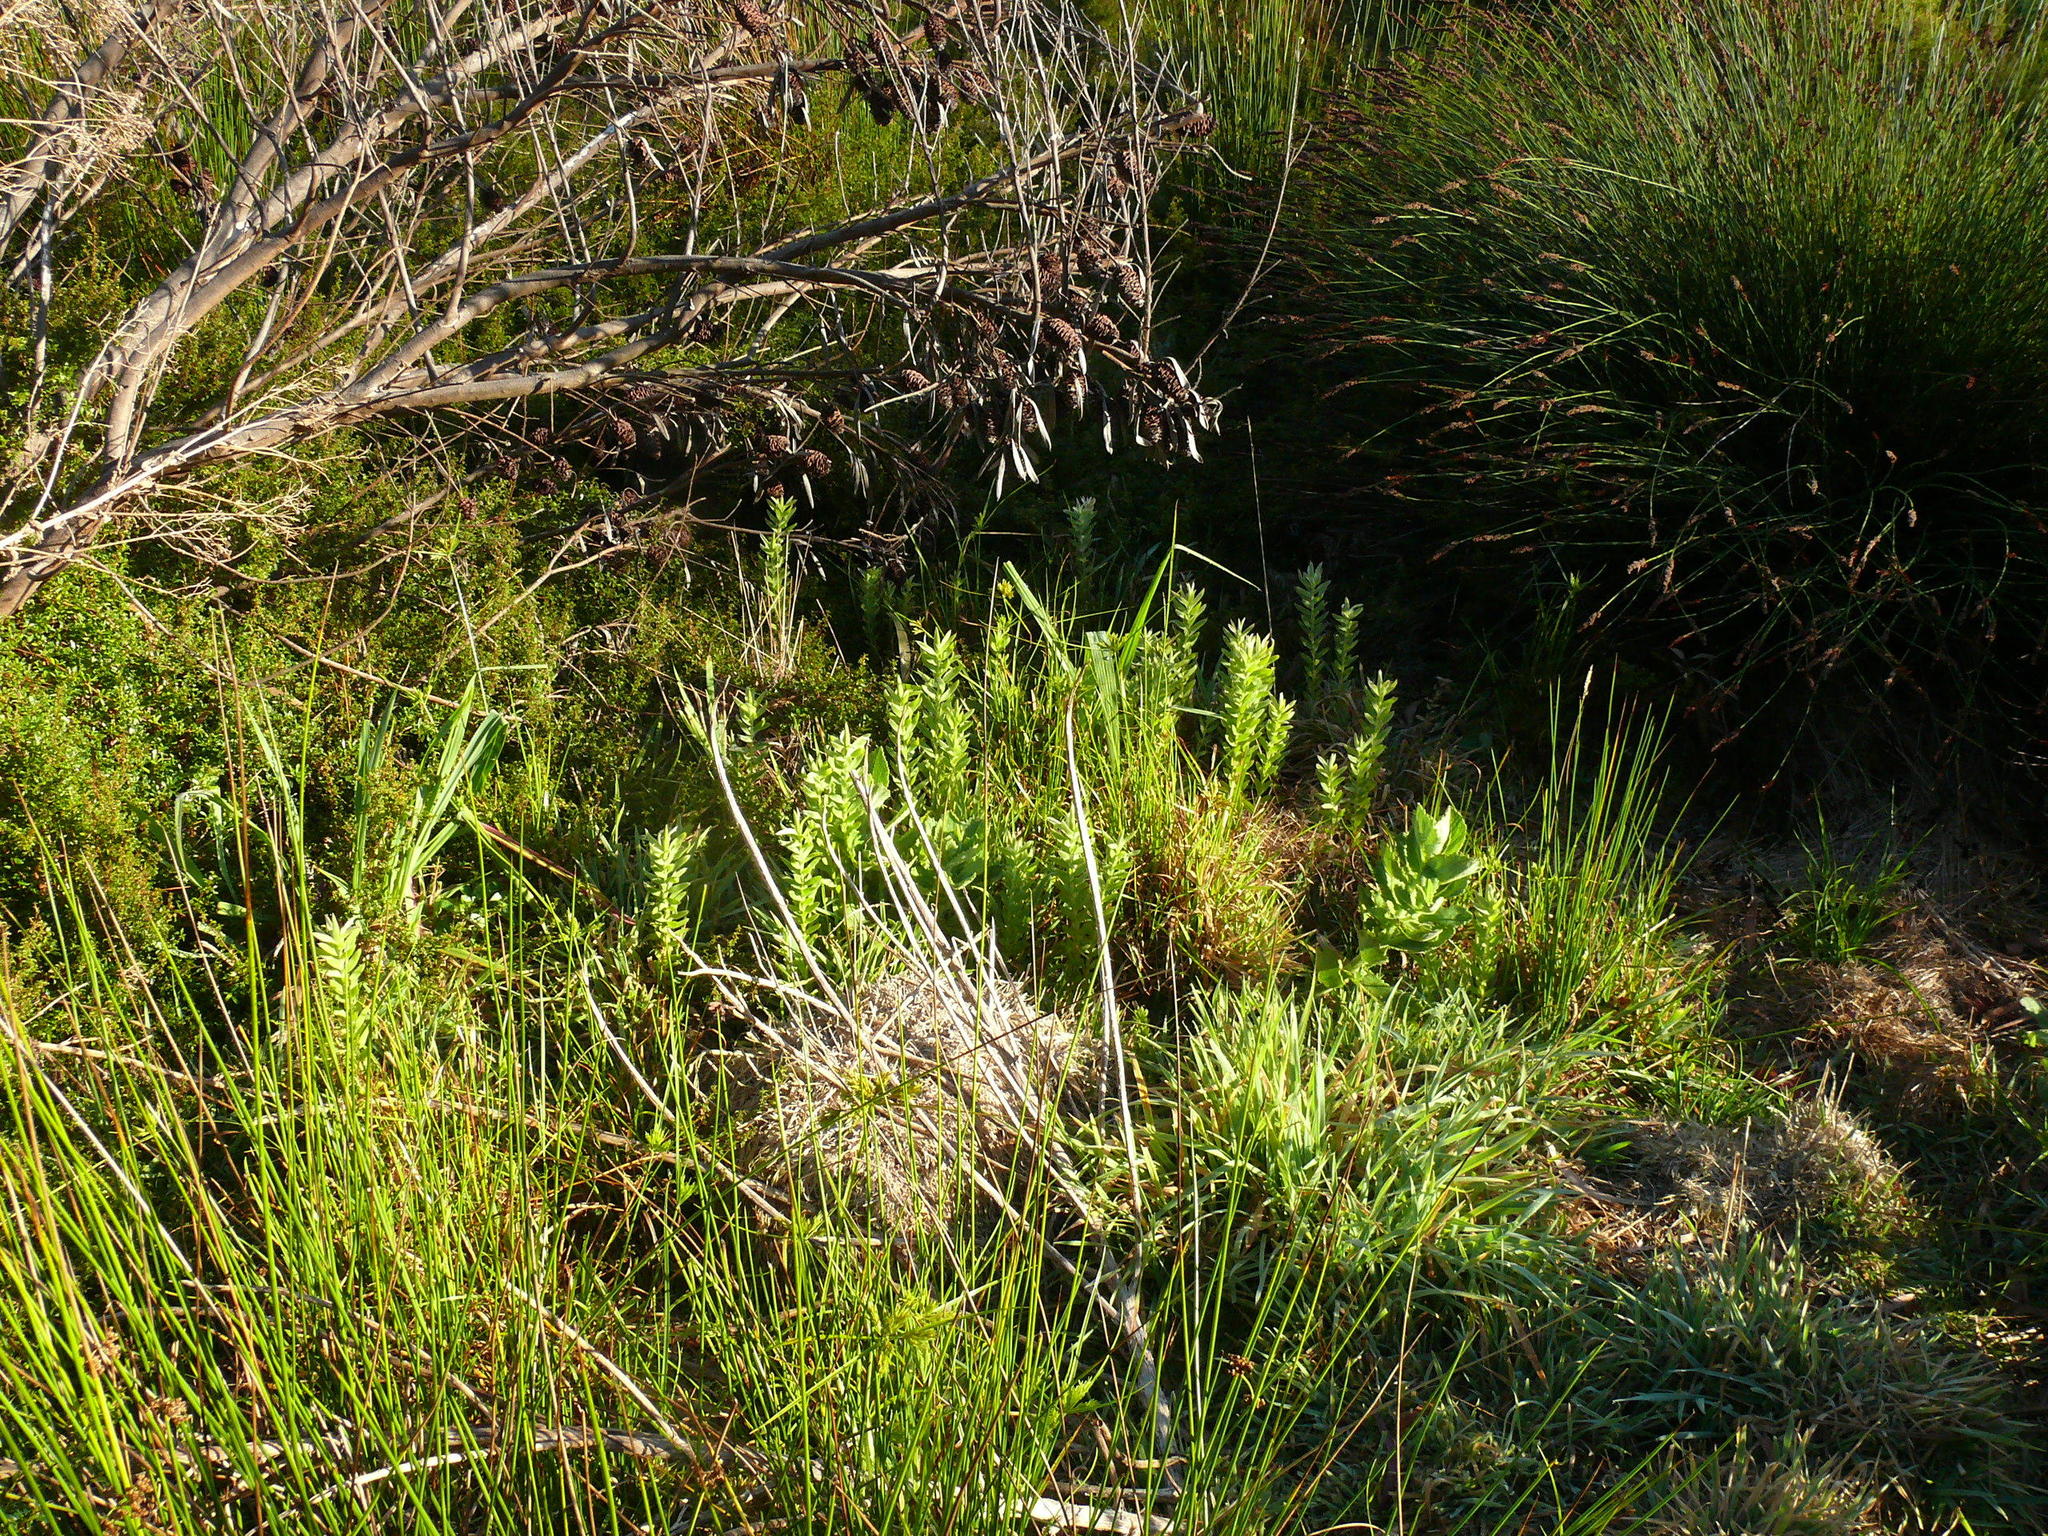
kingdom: Plantae
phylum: Tracheophyta
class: Magnoliopsida
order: Proteales
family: Proteaceae
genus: Leucadendron
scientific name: Leucadendron macowanii
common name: Acacia-leaf conebush
